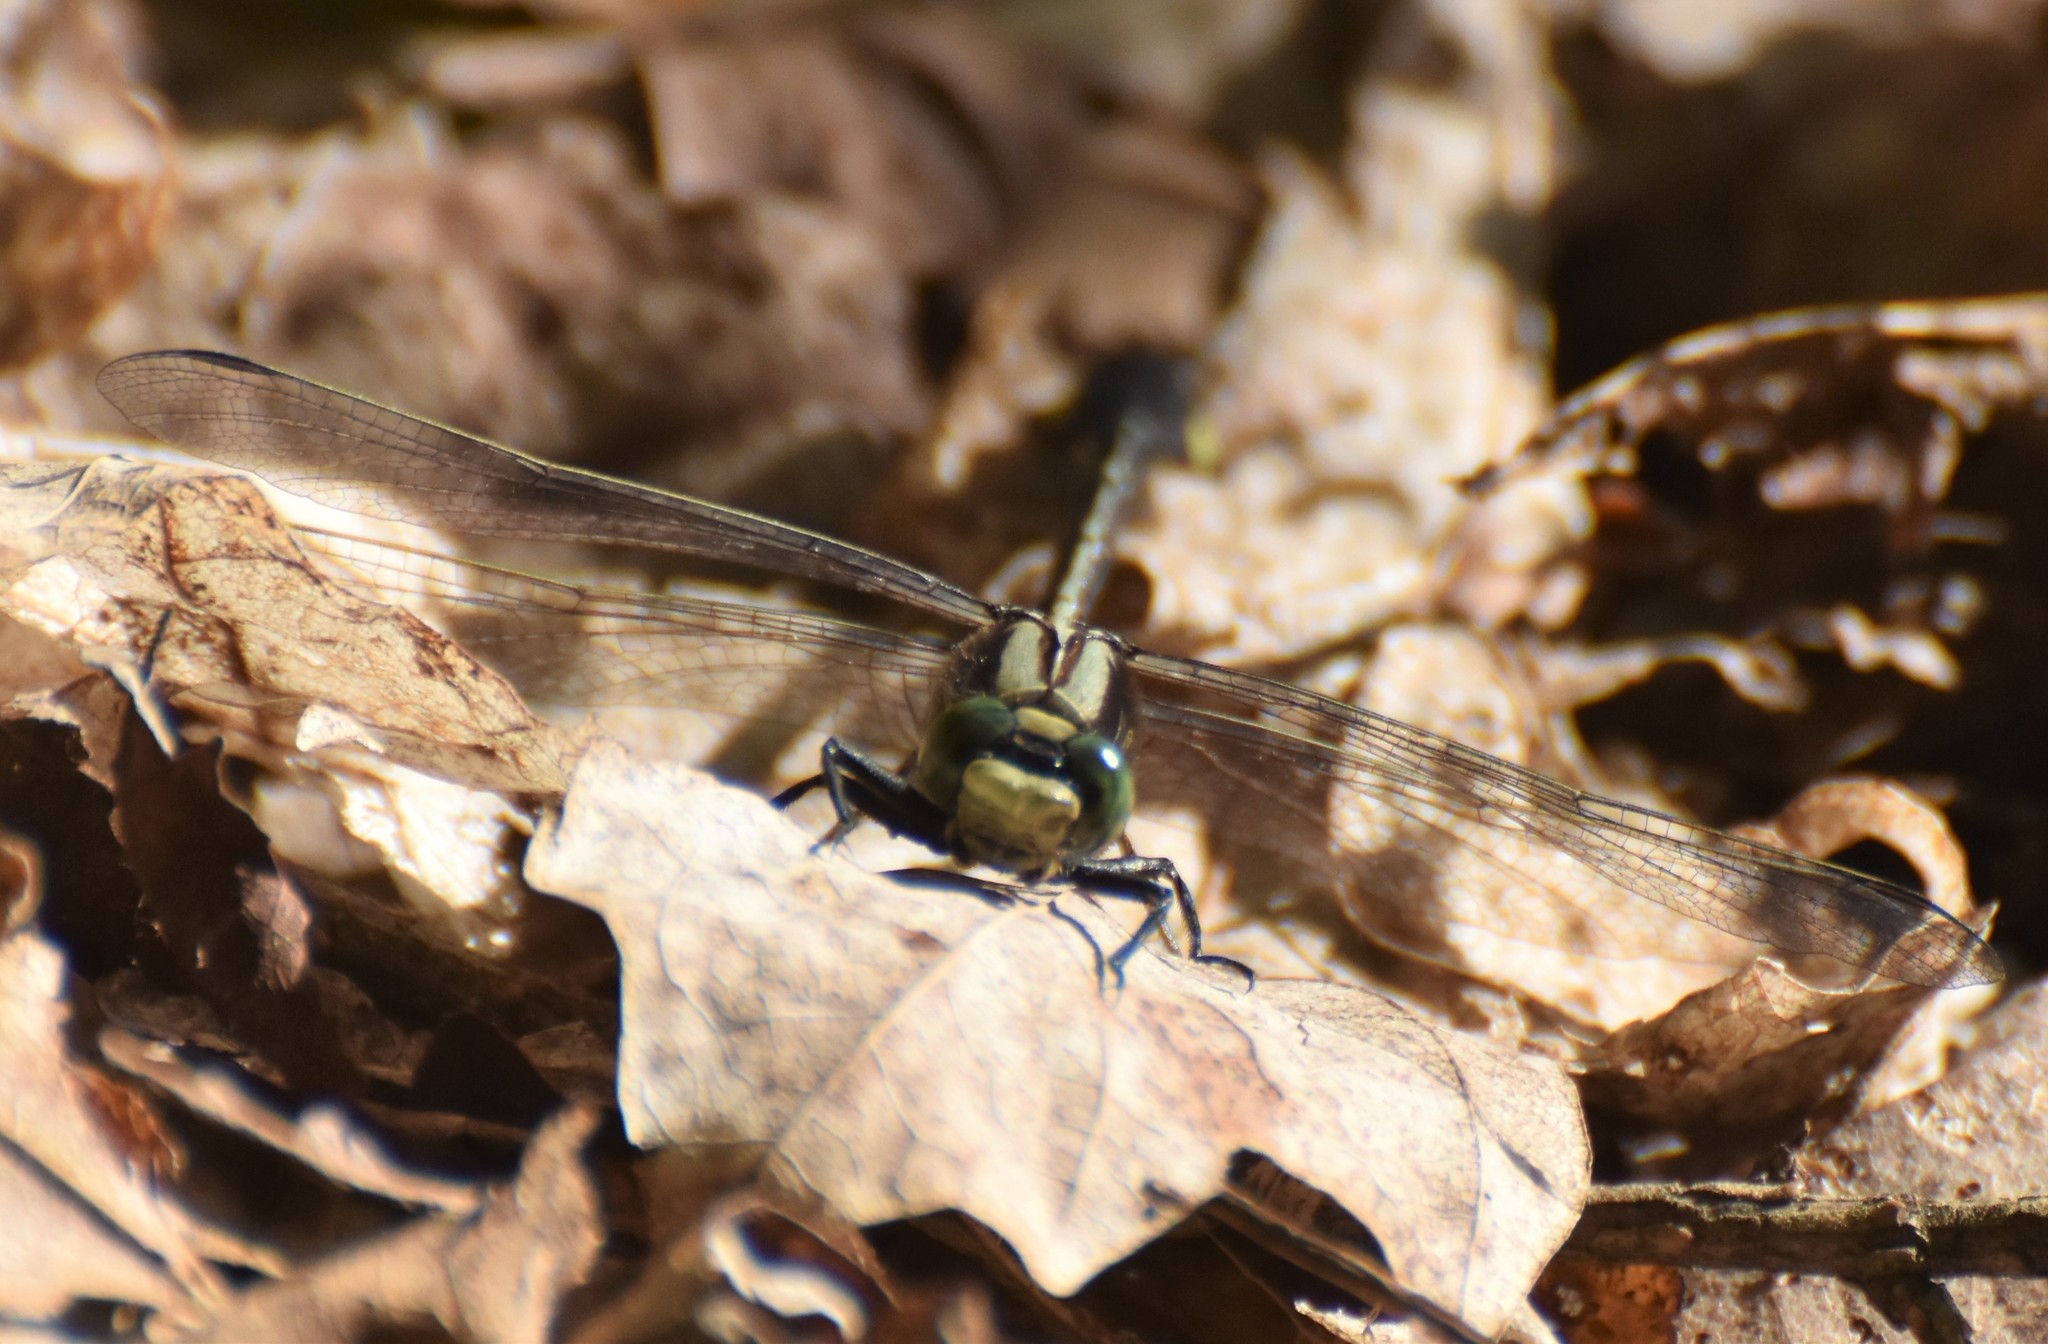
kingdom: Animalia
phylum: Arthropoda
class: Insecta
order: Odonata
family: Gomphidae
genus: Gomphurus
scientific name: Gomphurus ventricosus
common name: Skillet clubtail
